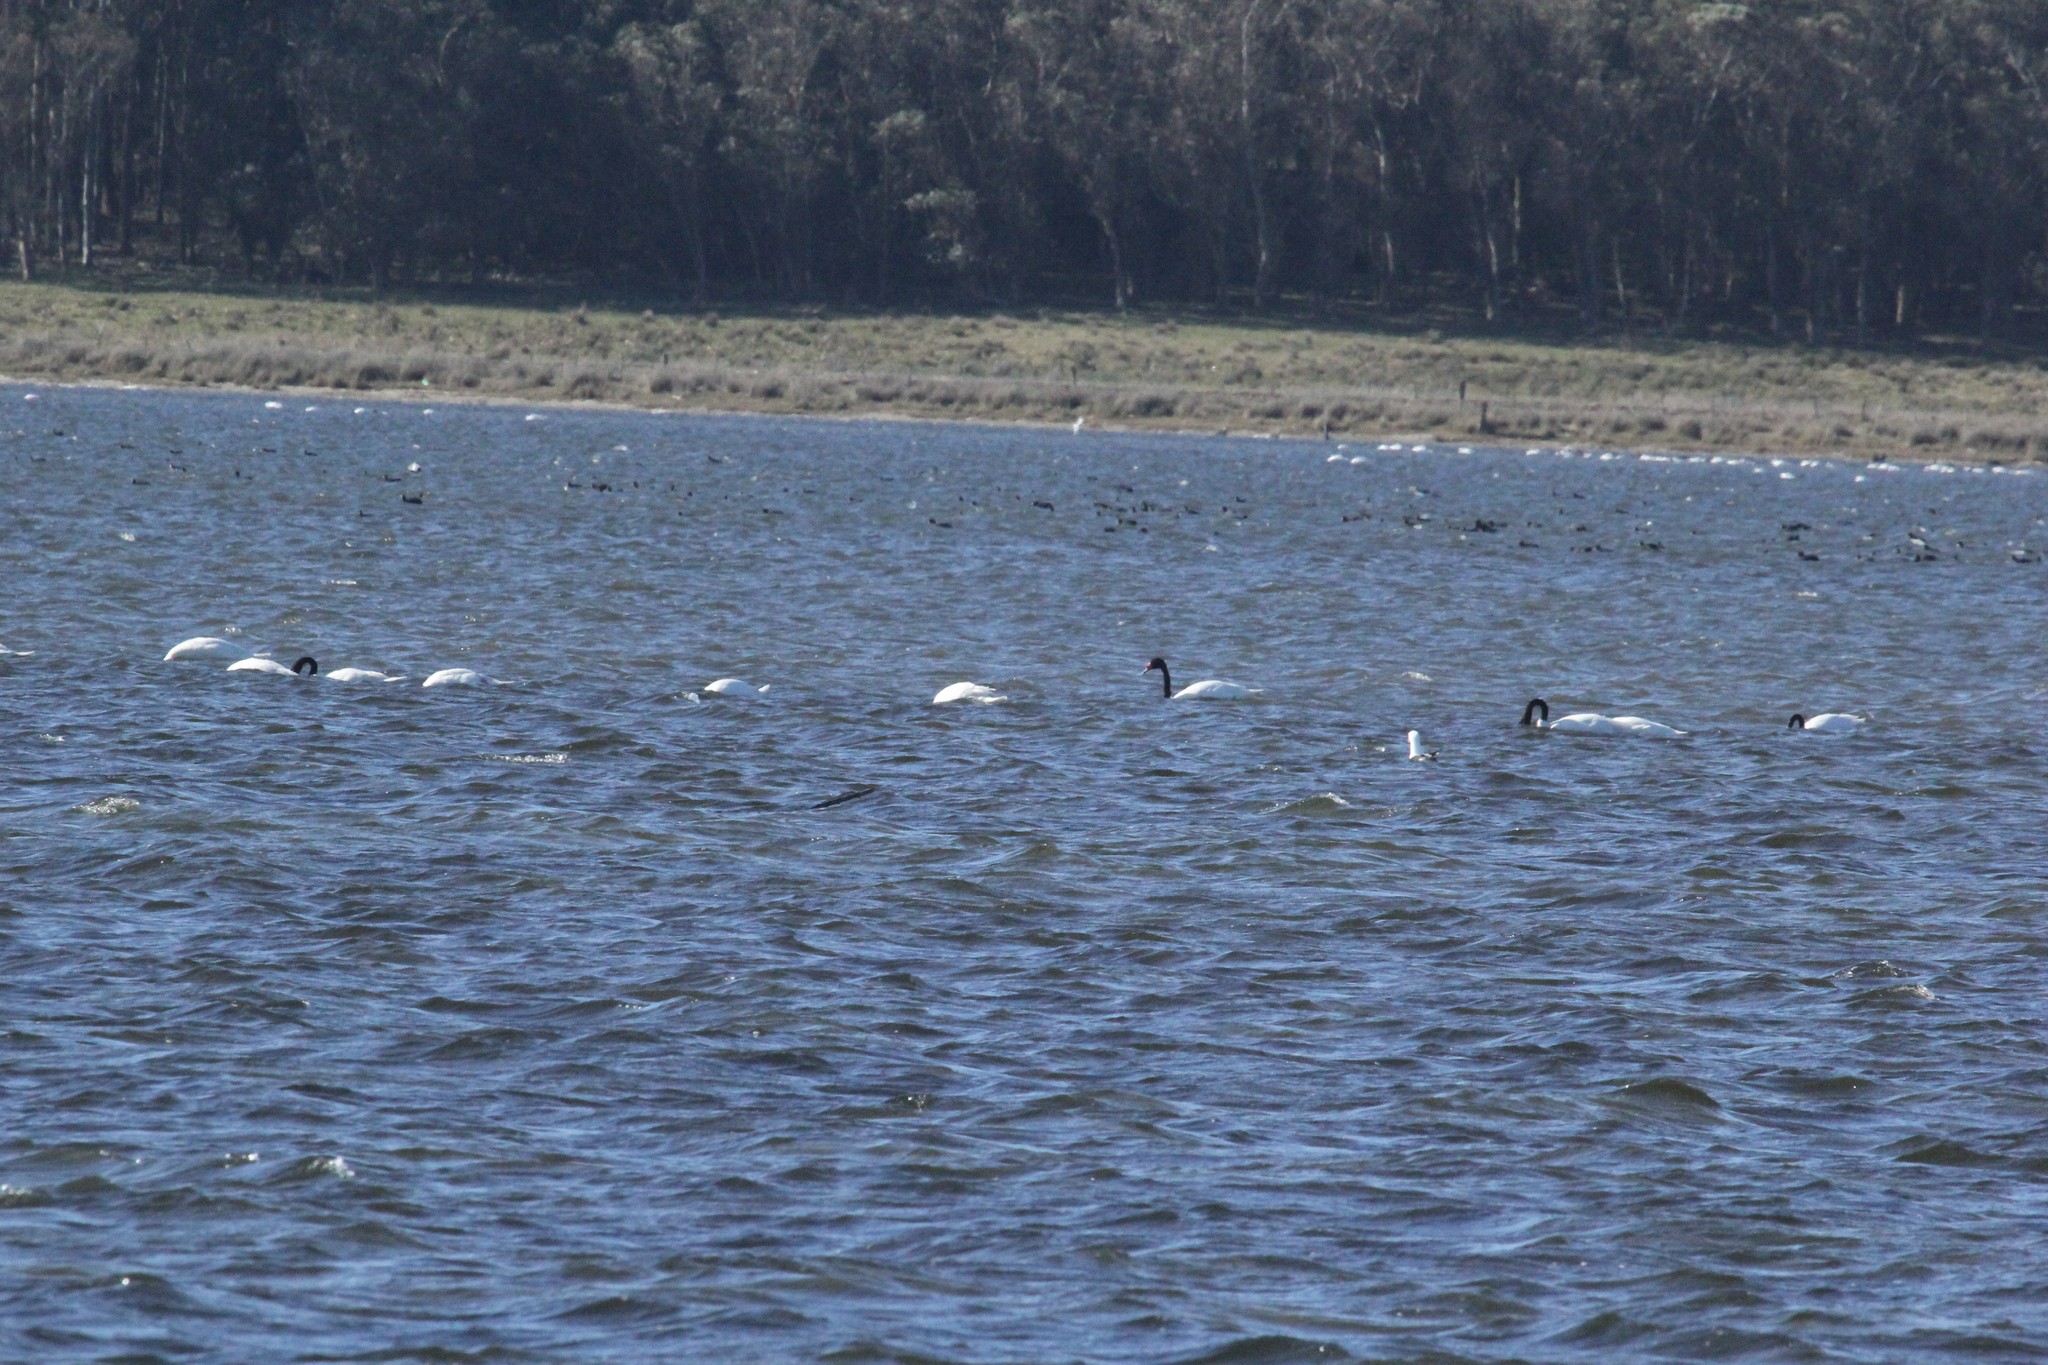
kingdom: Animalia
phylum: Chordata
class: Aves
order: Anseriformes
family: Anatidae
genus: Cygnus
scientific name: Cygnus melancoryphus
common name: Black-necked swan
